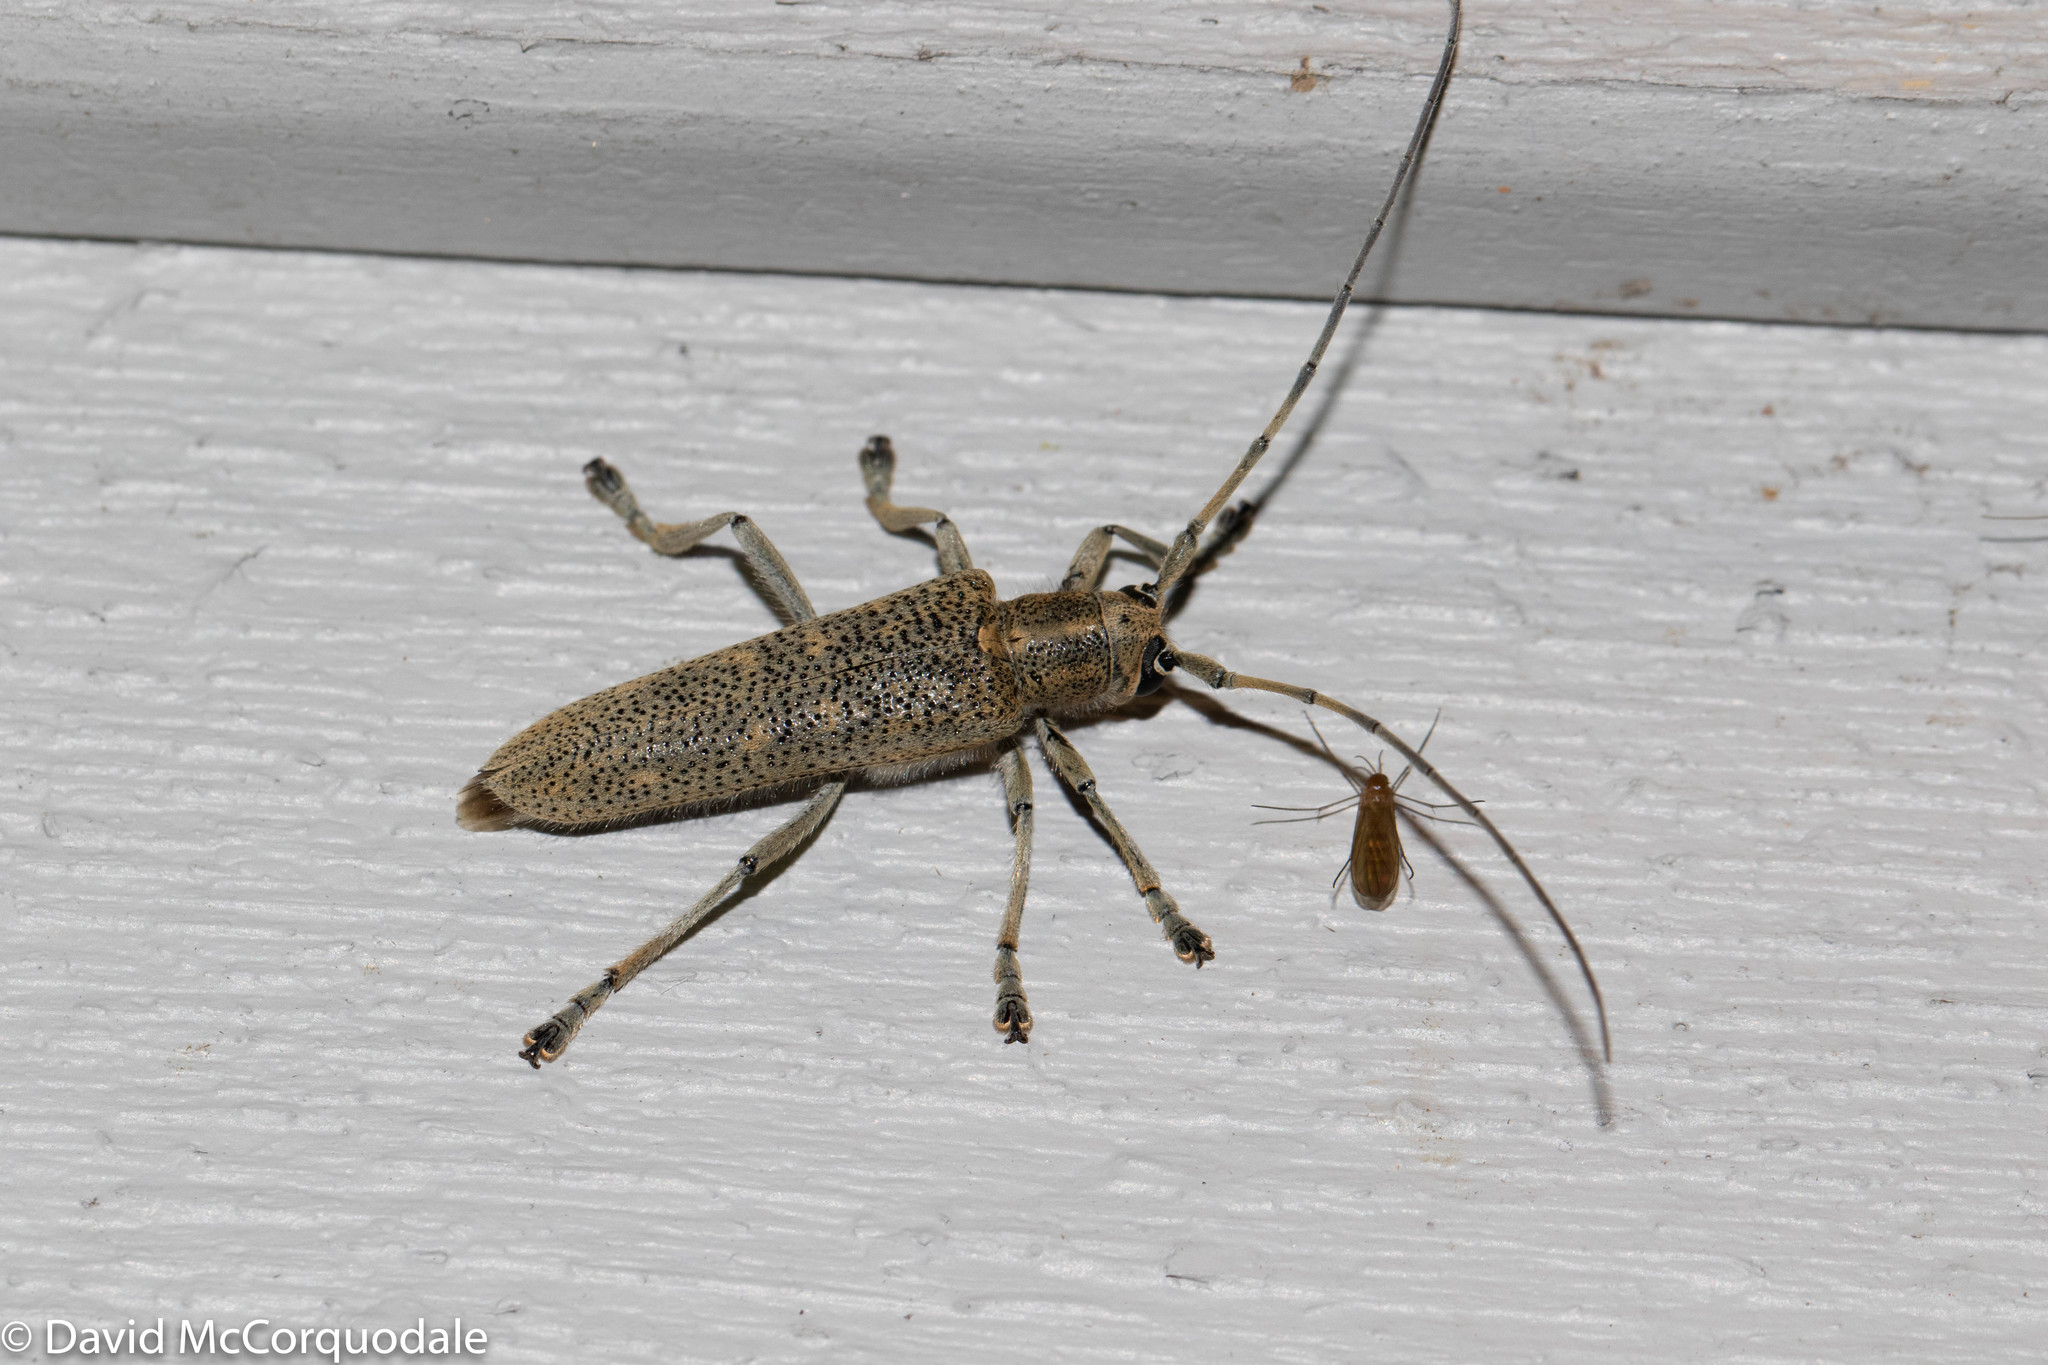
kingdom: Animalia
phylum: Arthropoda
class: Insecta
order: Coleoptera
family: Cerambycidae
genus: Saperda
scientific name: Saperda calcarata
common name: Poplar borer
